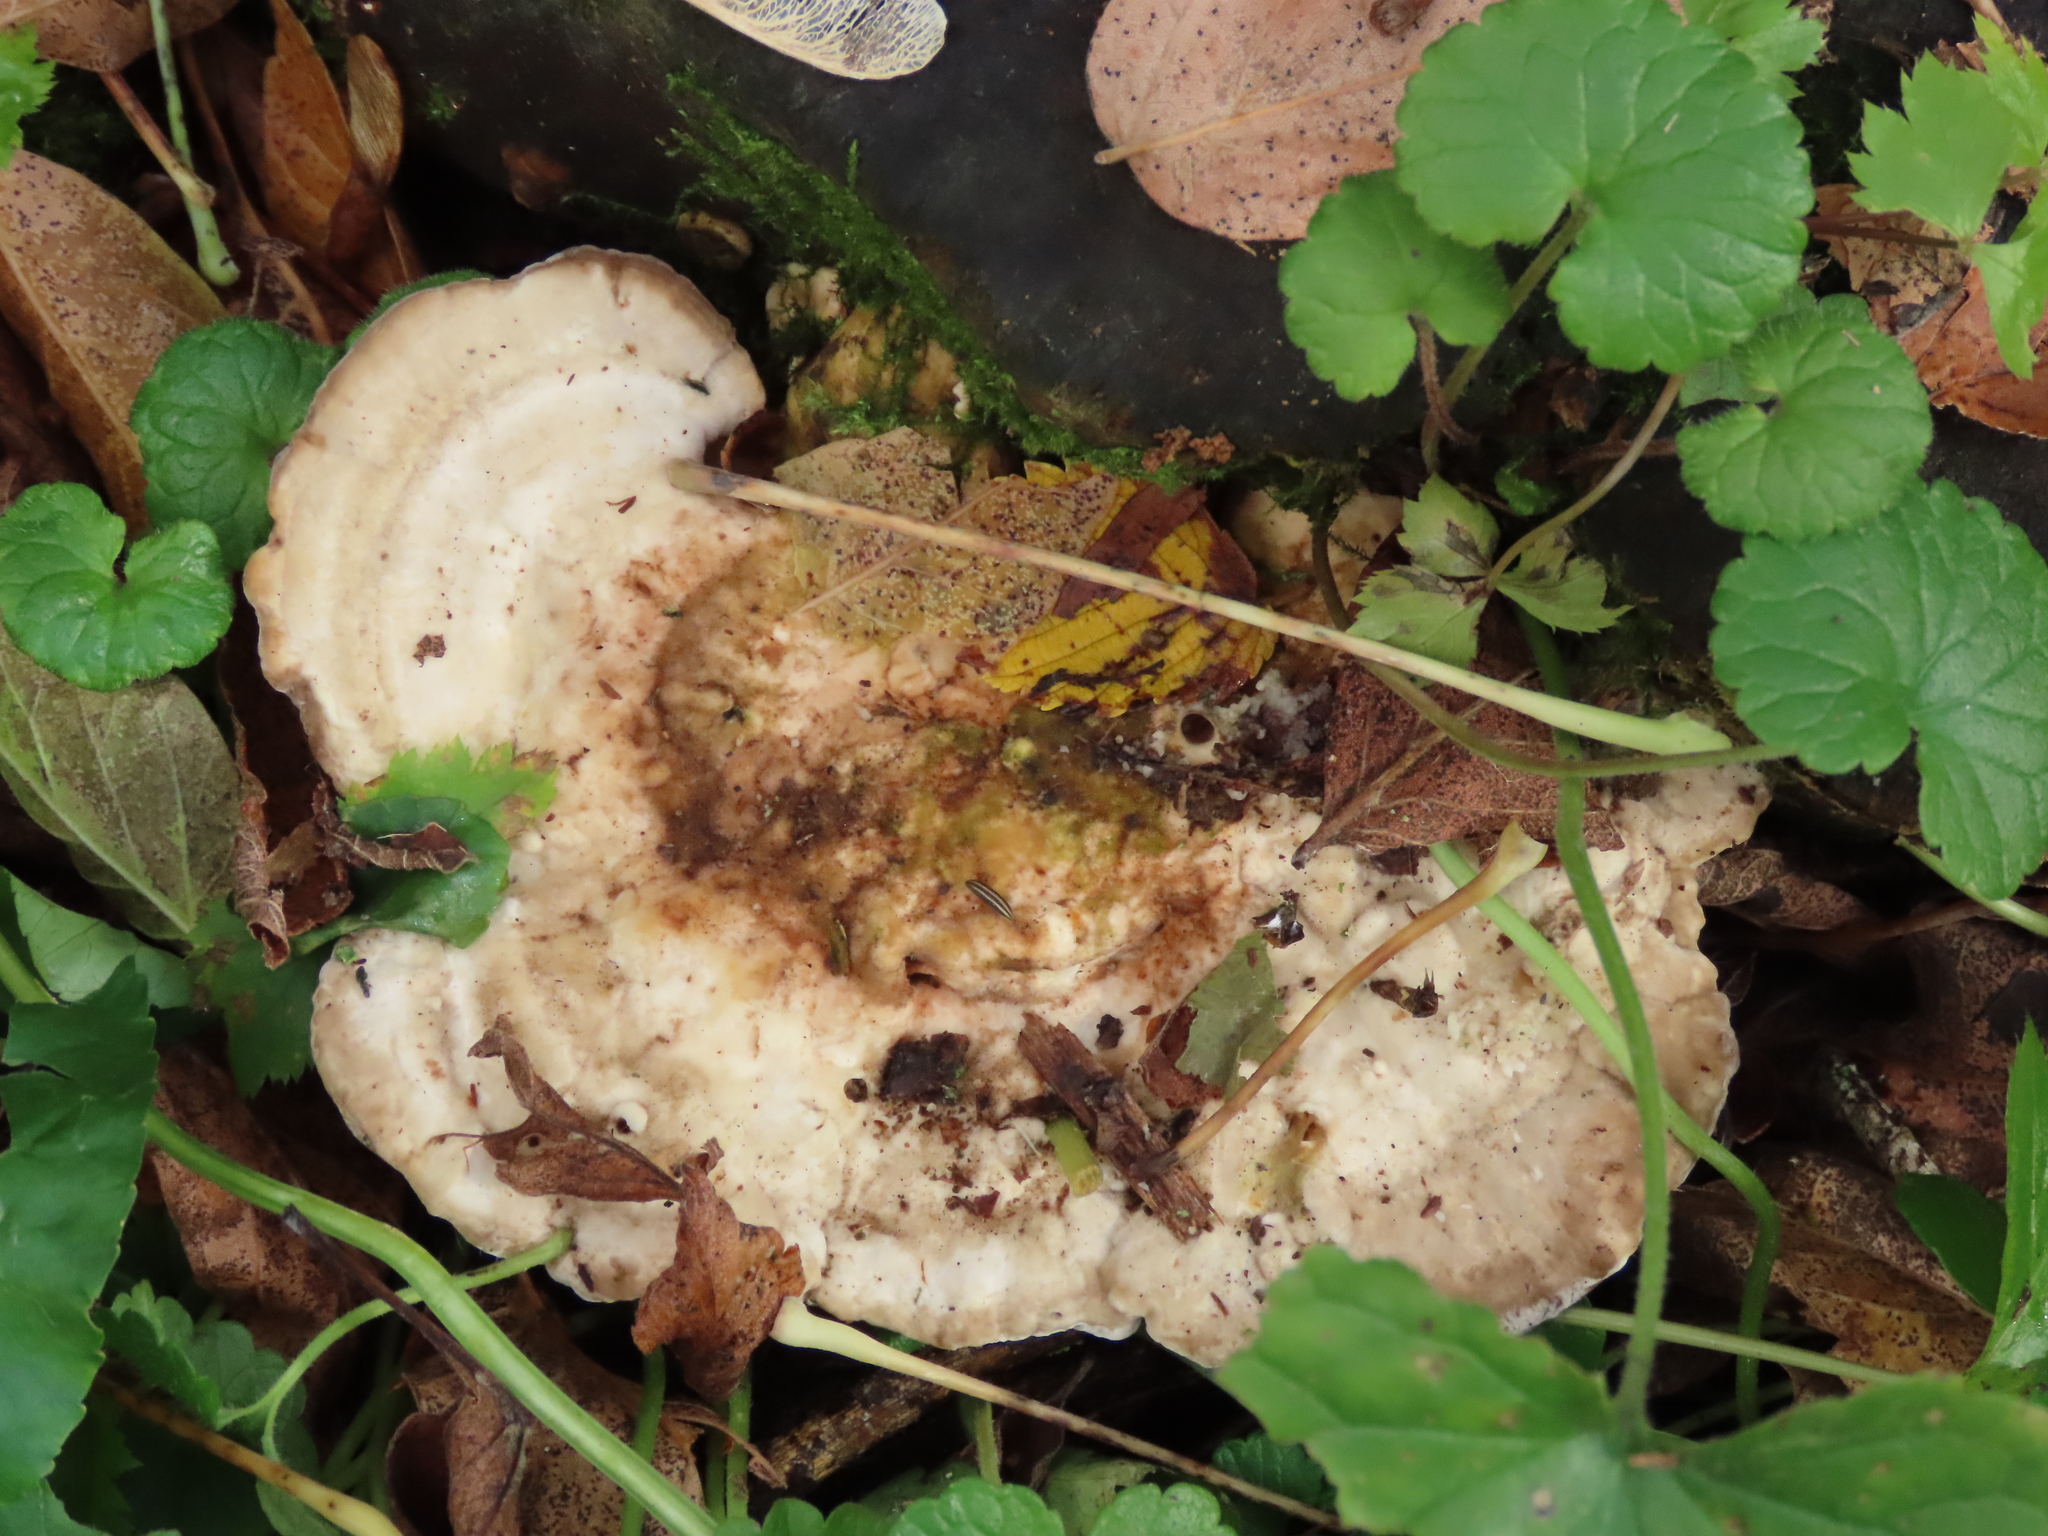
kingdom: Fungi
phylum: Basidiomycota
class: Agaricomycetes
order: Polyporales
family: Polyporaceae
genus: Trametes
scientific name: Trametes gibbosa
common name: Lumpy bracket
